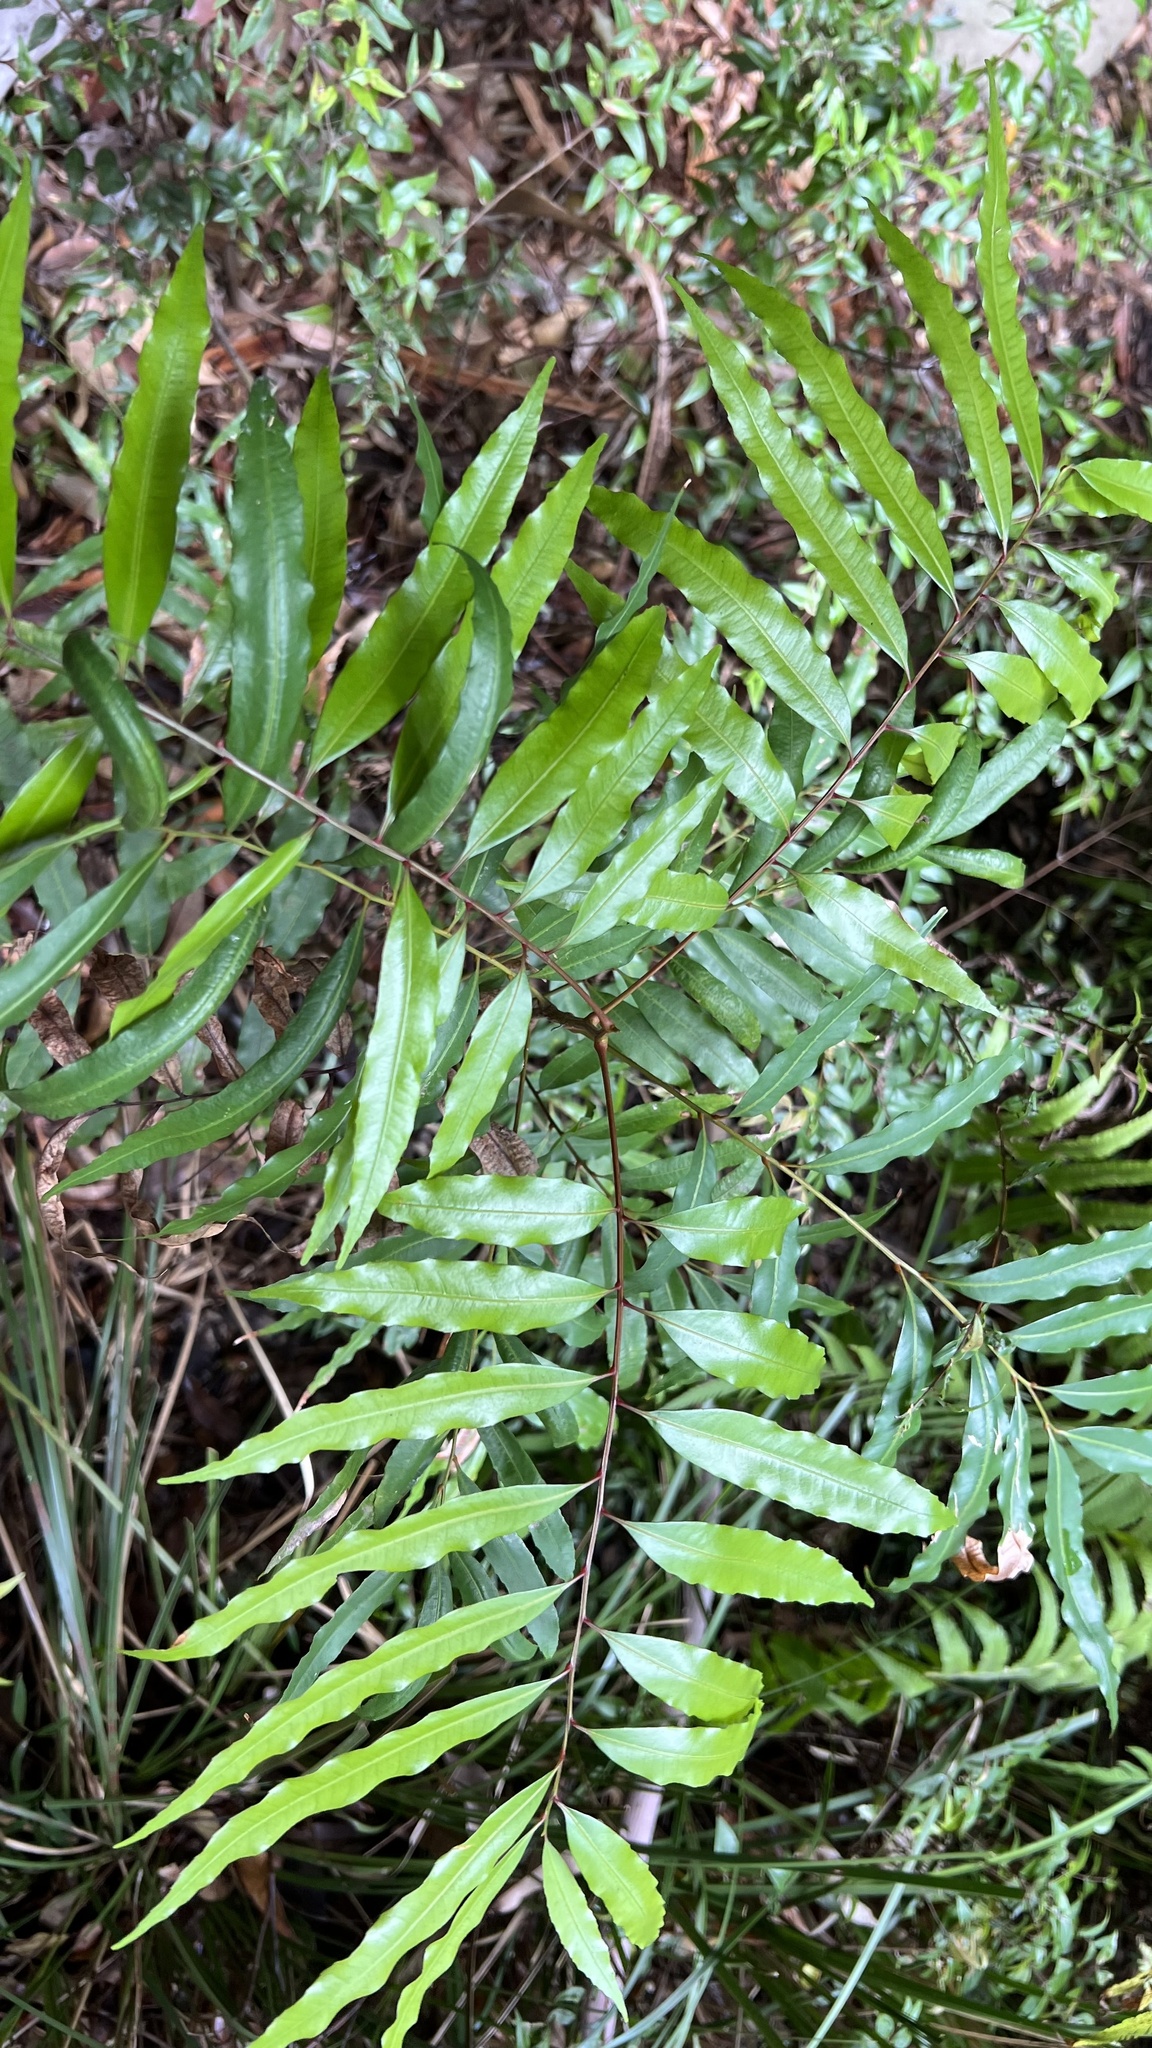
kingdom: Plantae
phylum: Tracheophyta
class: Magnoliopsida
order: Sapindales
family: Sapindaceae
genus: Mischarytera
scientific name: Mischarytera lautereriana
